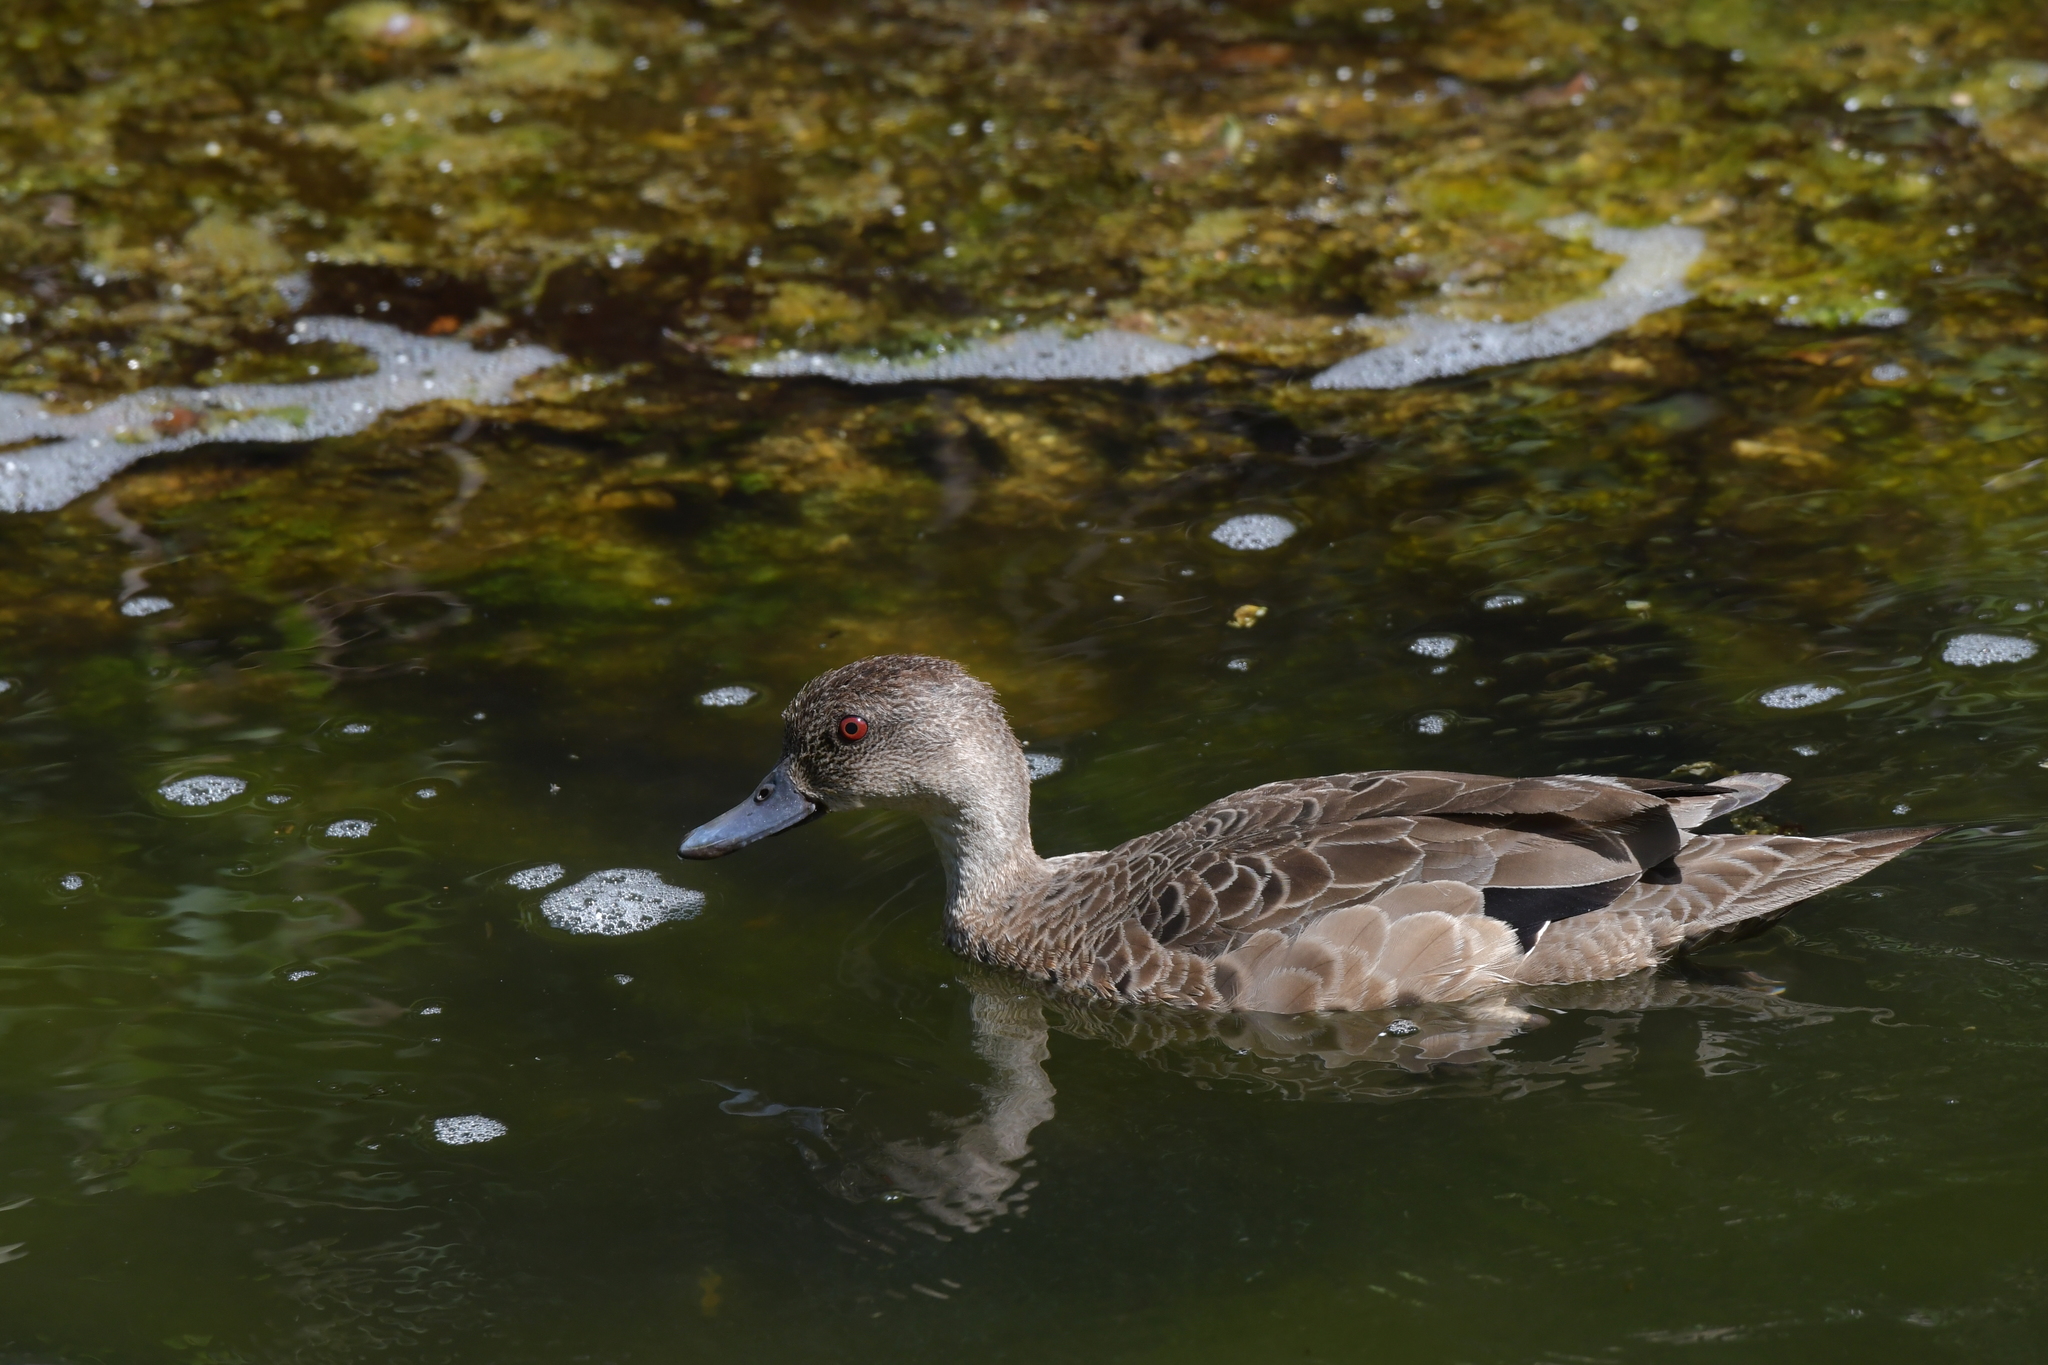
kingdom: Animalia
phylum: Chordata
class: Aves
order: Anseriformes
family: Anatidae
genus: Anas
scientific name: Anas gracilis
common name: Grey teal
